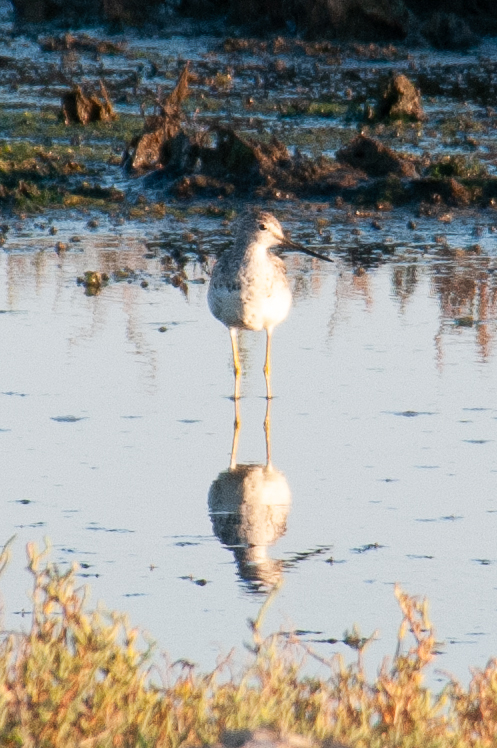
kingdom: Animalia
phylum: Chordata
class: Aves
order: Charadriiformes
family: Scolopacidae
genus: Tringa
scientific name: Tringa melanoleuca
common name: Greater yellowlegs
